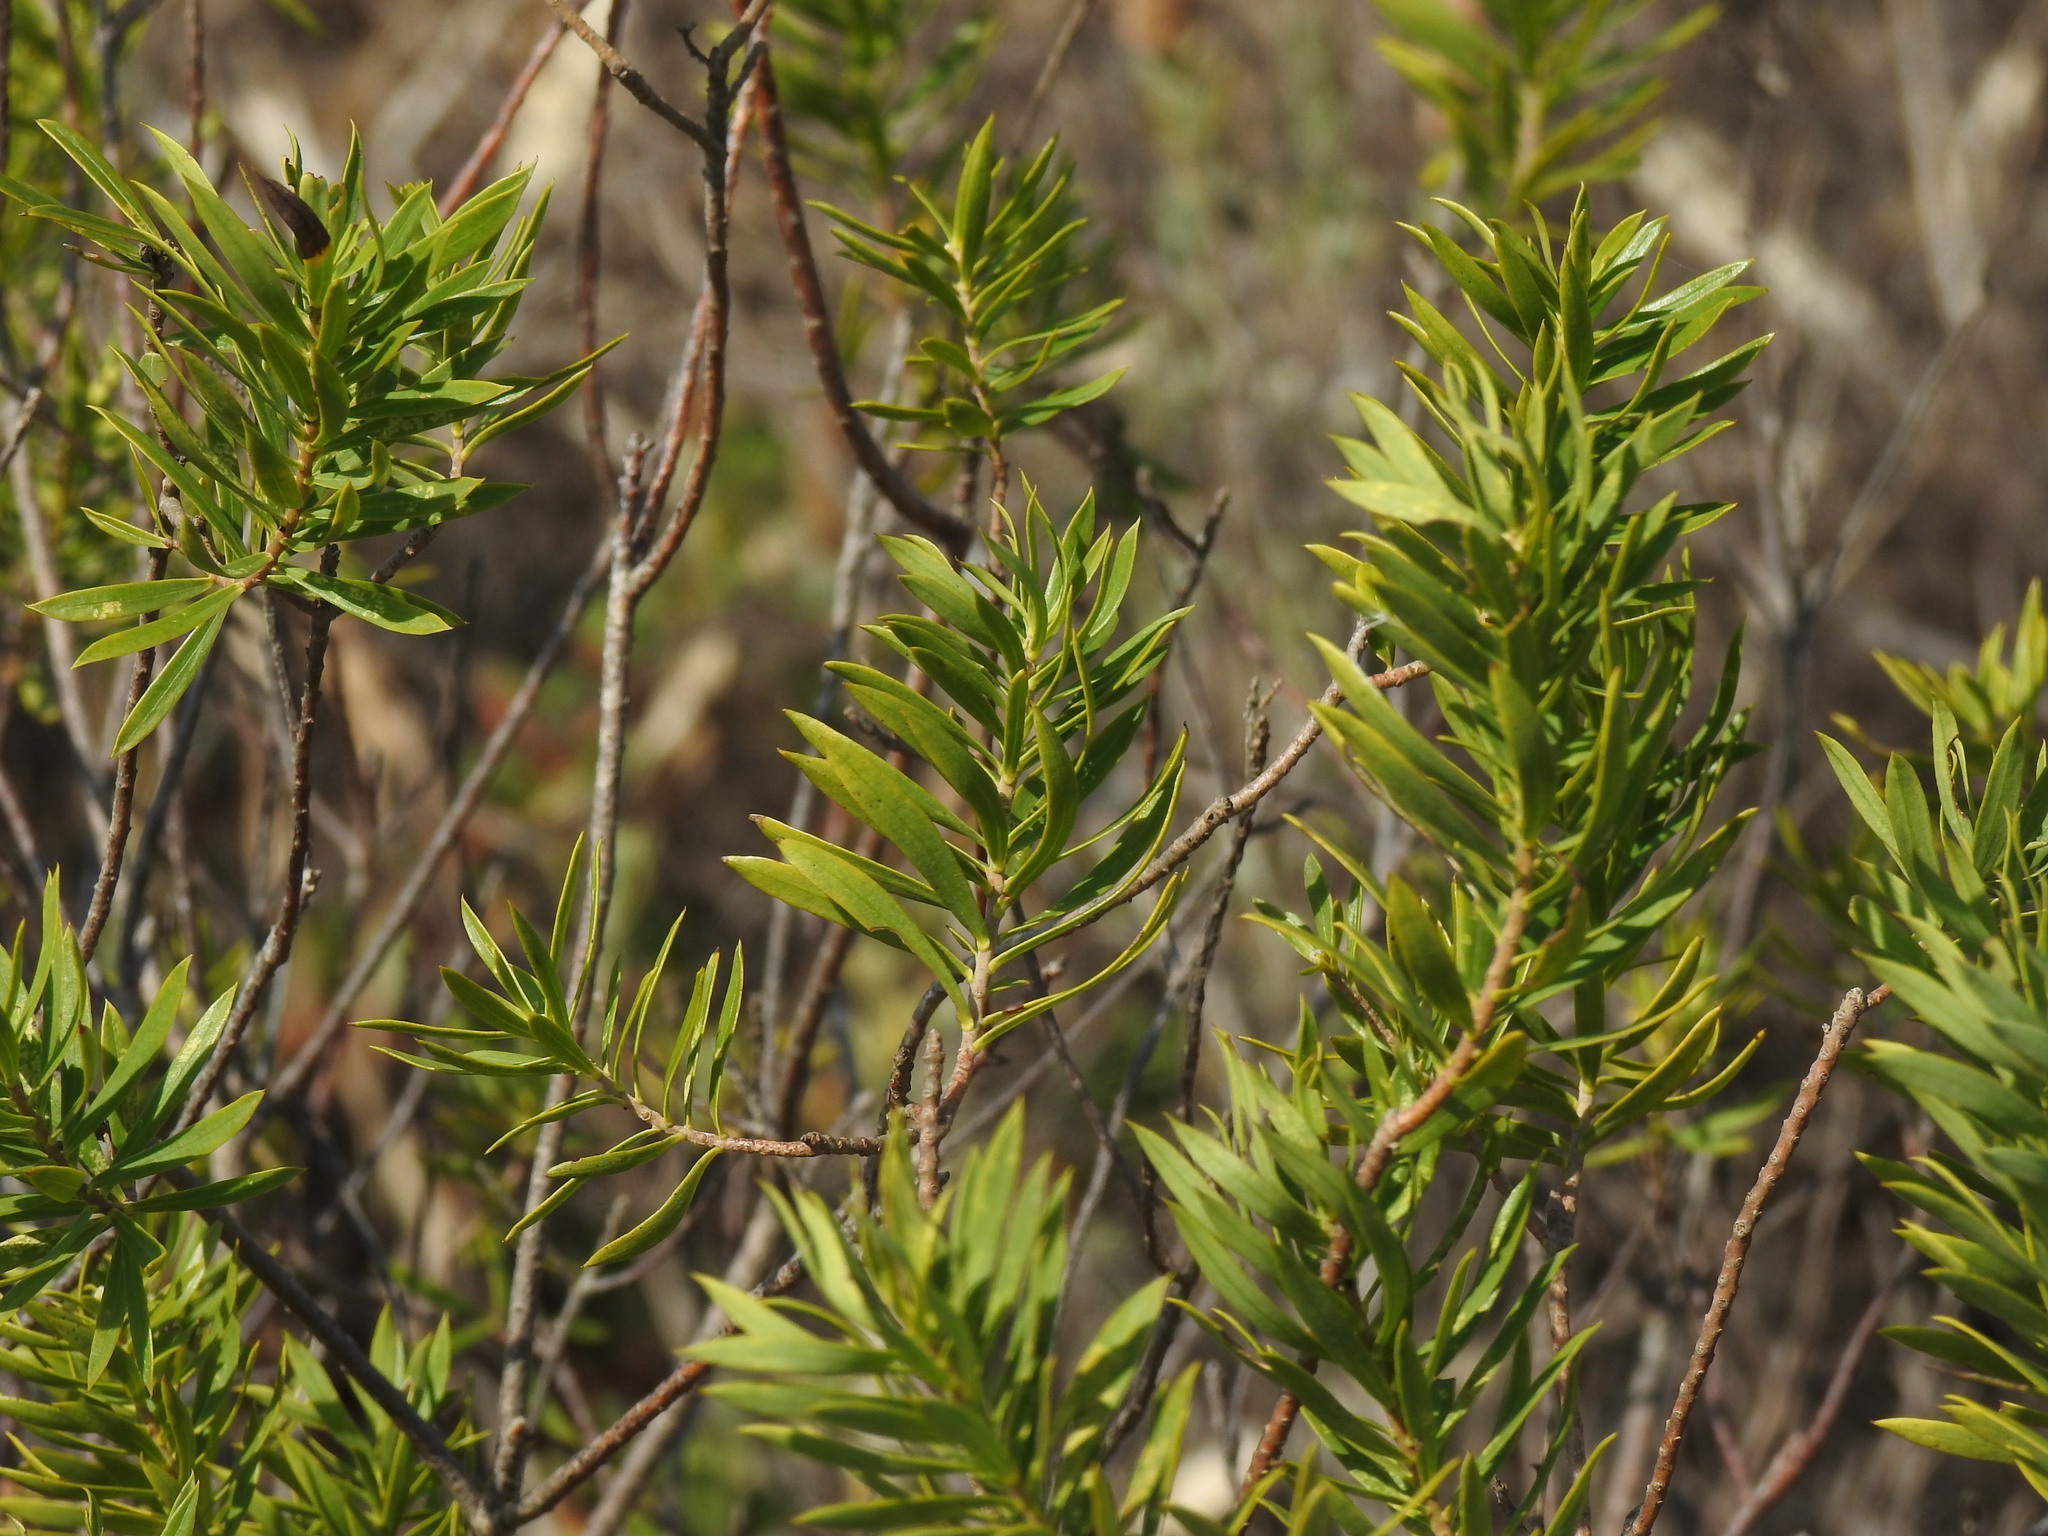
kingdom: Plantae
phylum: Tracheophyta
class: Magnoliopsida
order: Malvales
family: Thymelaeaceae
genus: Daphne
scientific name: Daphne gnidium
